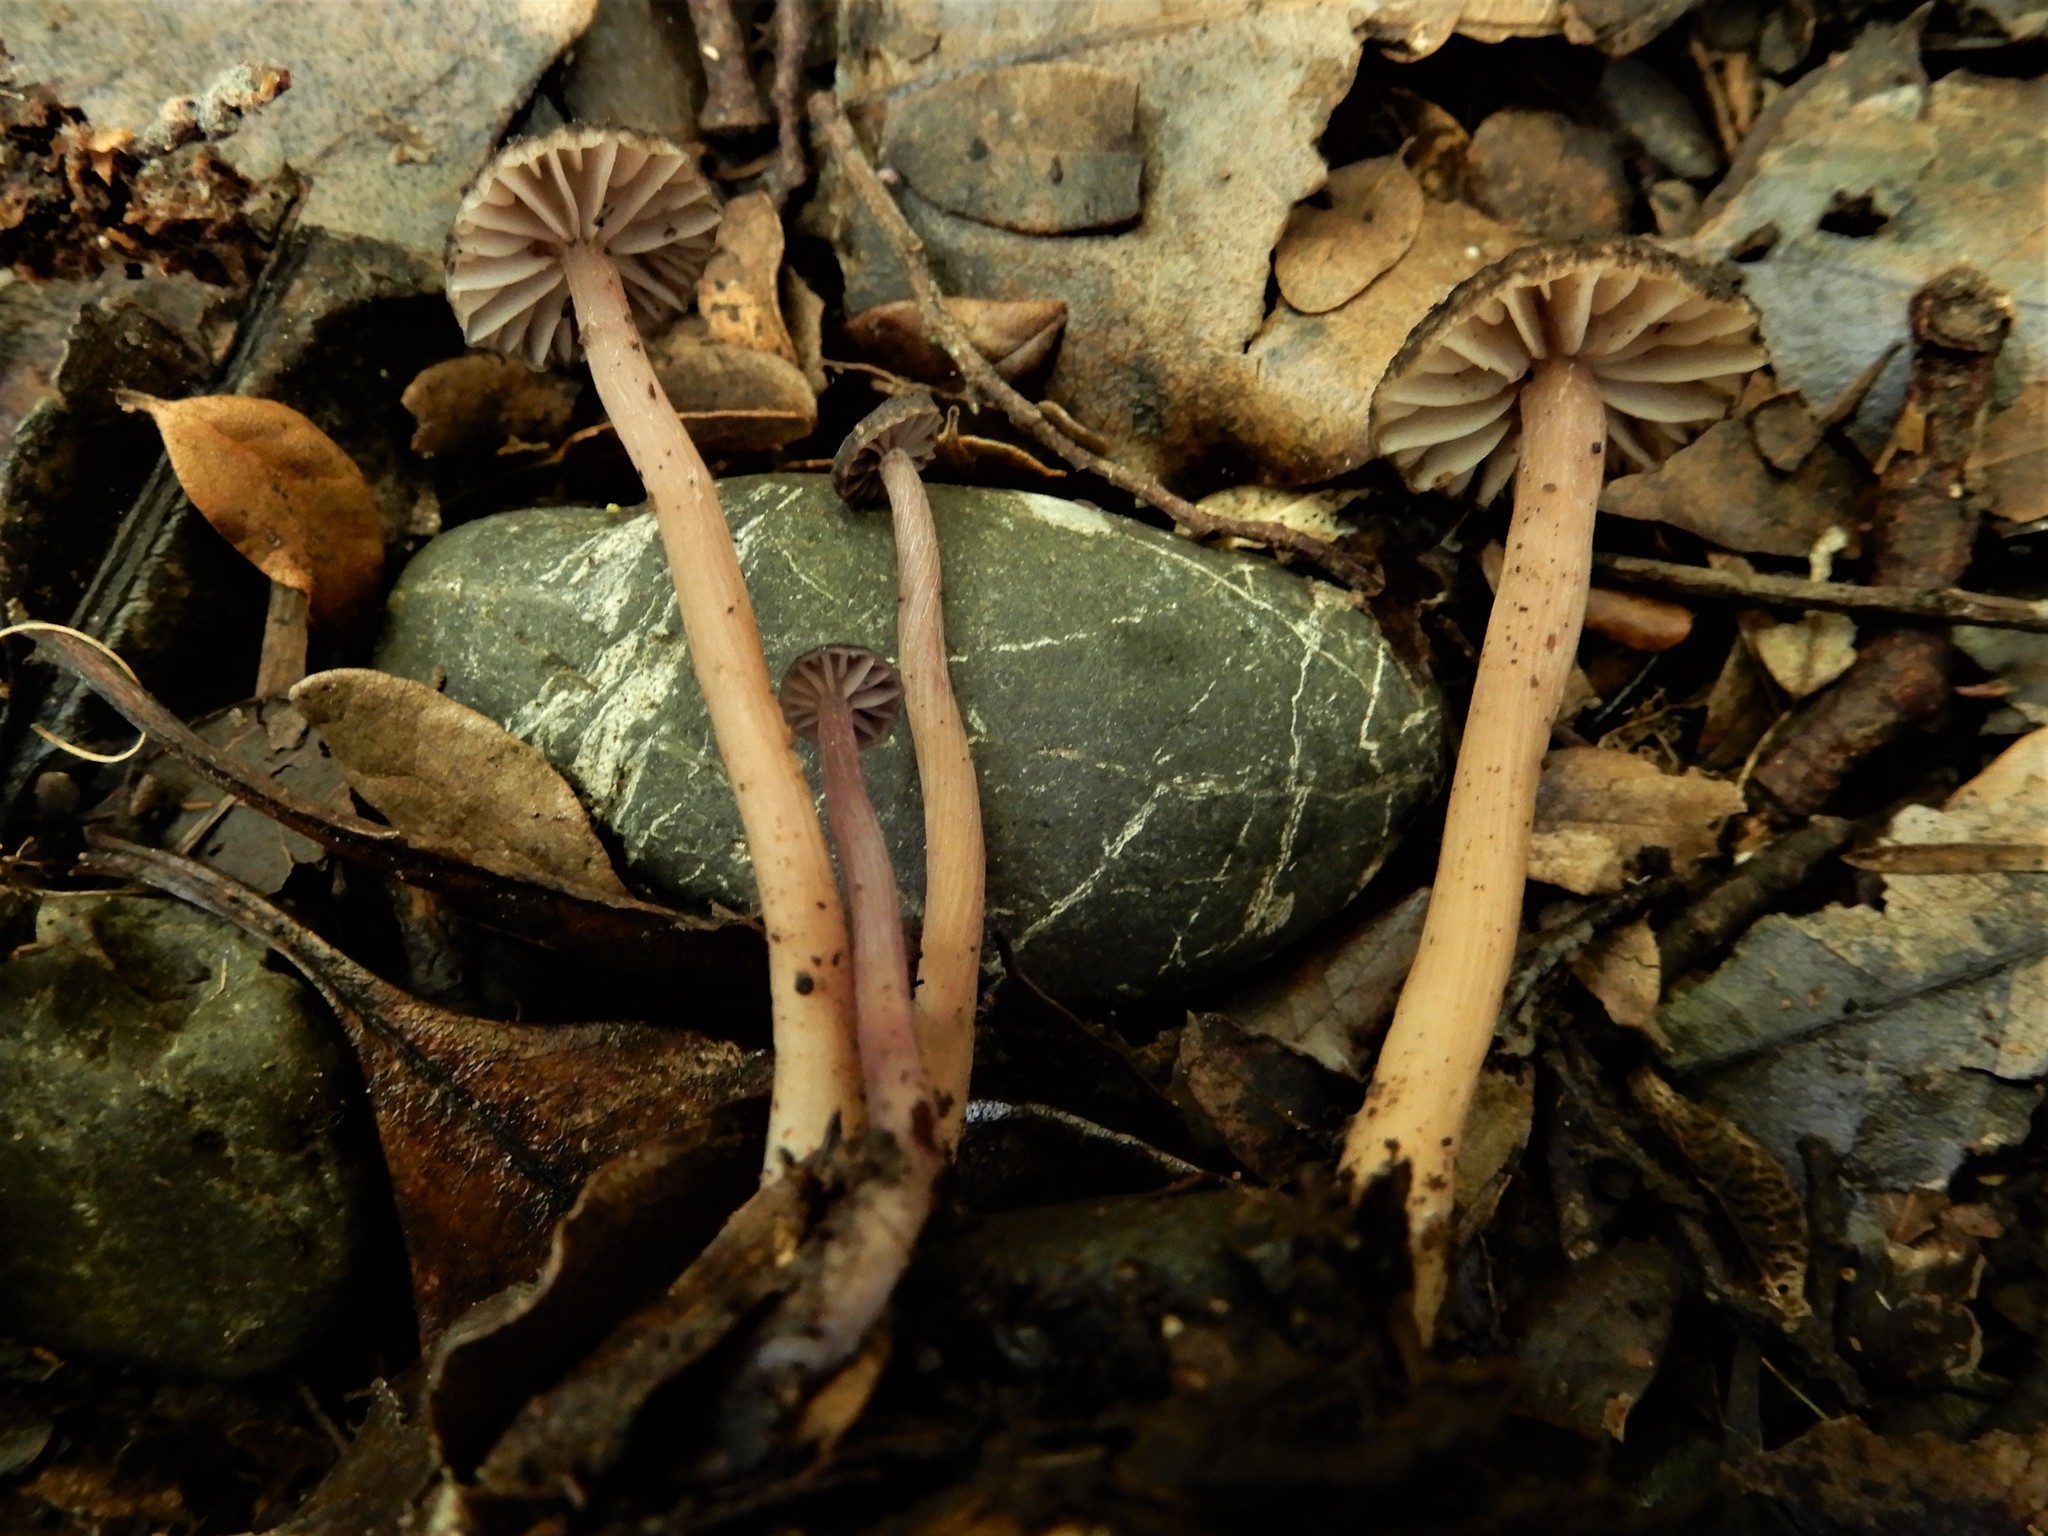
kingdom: Fungi
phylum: Basidiomycota
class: Agaricomycetes
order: Agaricales
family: Hydnangiaceae
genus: Laccaria
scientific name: Laccaria masoniae
